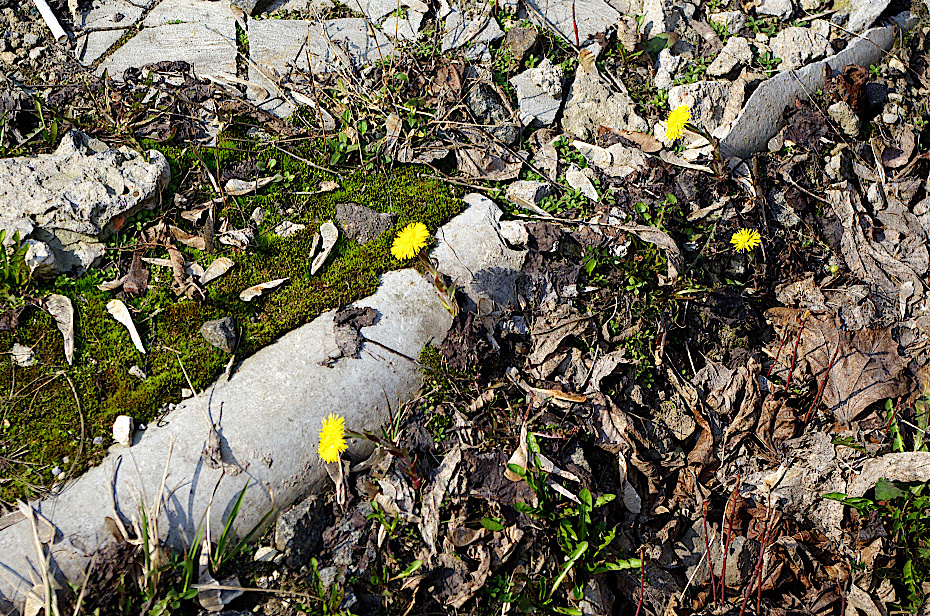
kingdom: Plantae
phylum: Tracheophyta
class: Magnoliopsida
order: Asterales
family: Asteraceae
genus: Tussilago
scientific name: Tussilago farfara
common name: Coltsfoot
